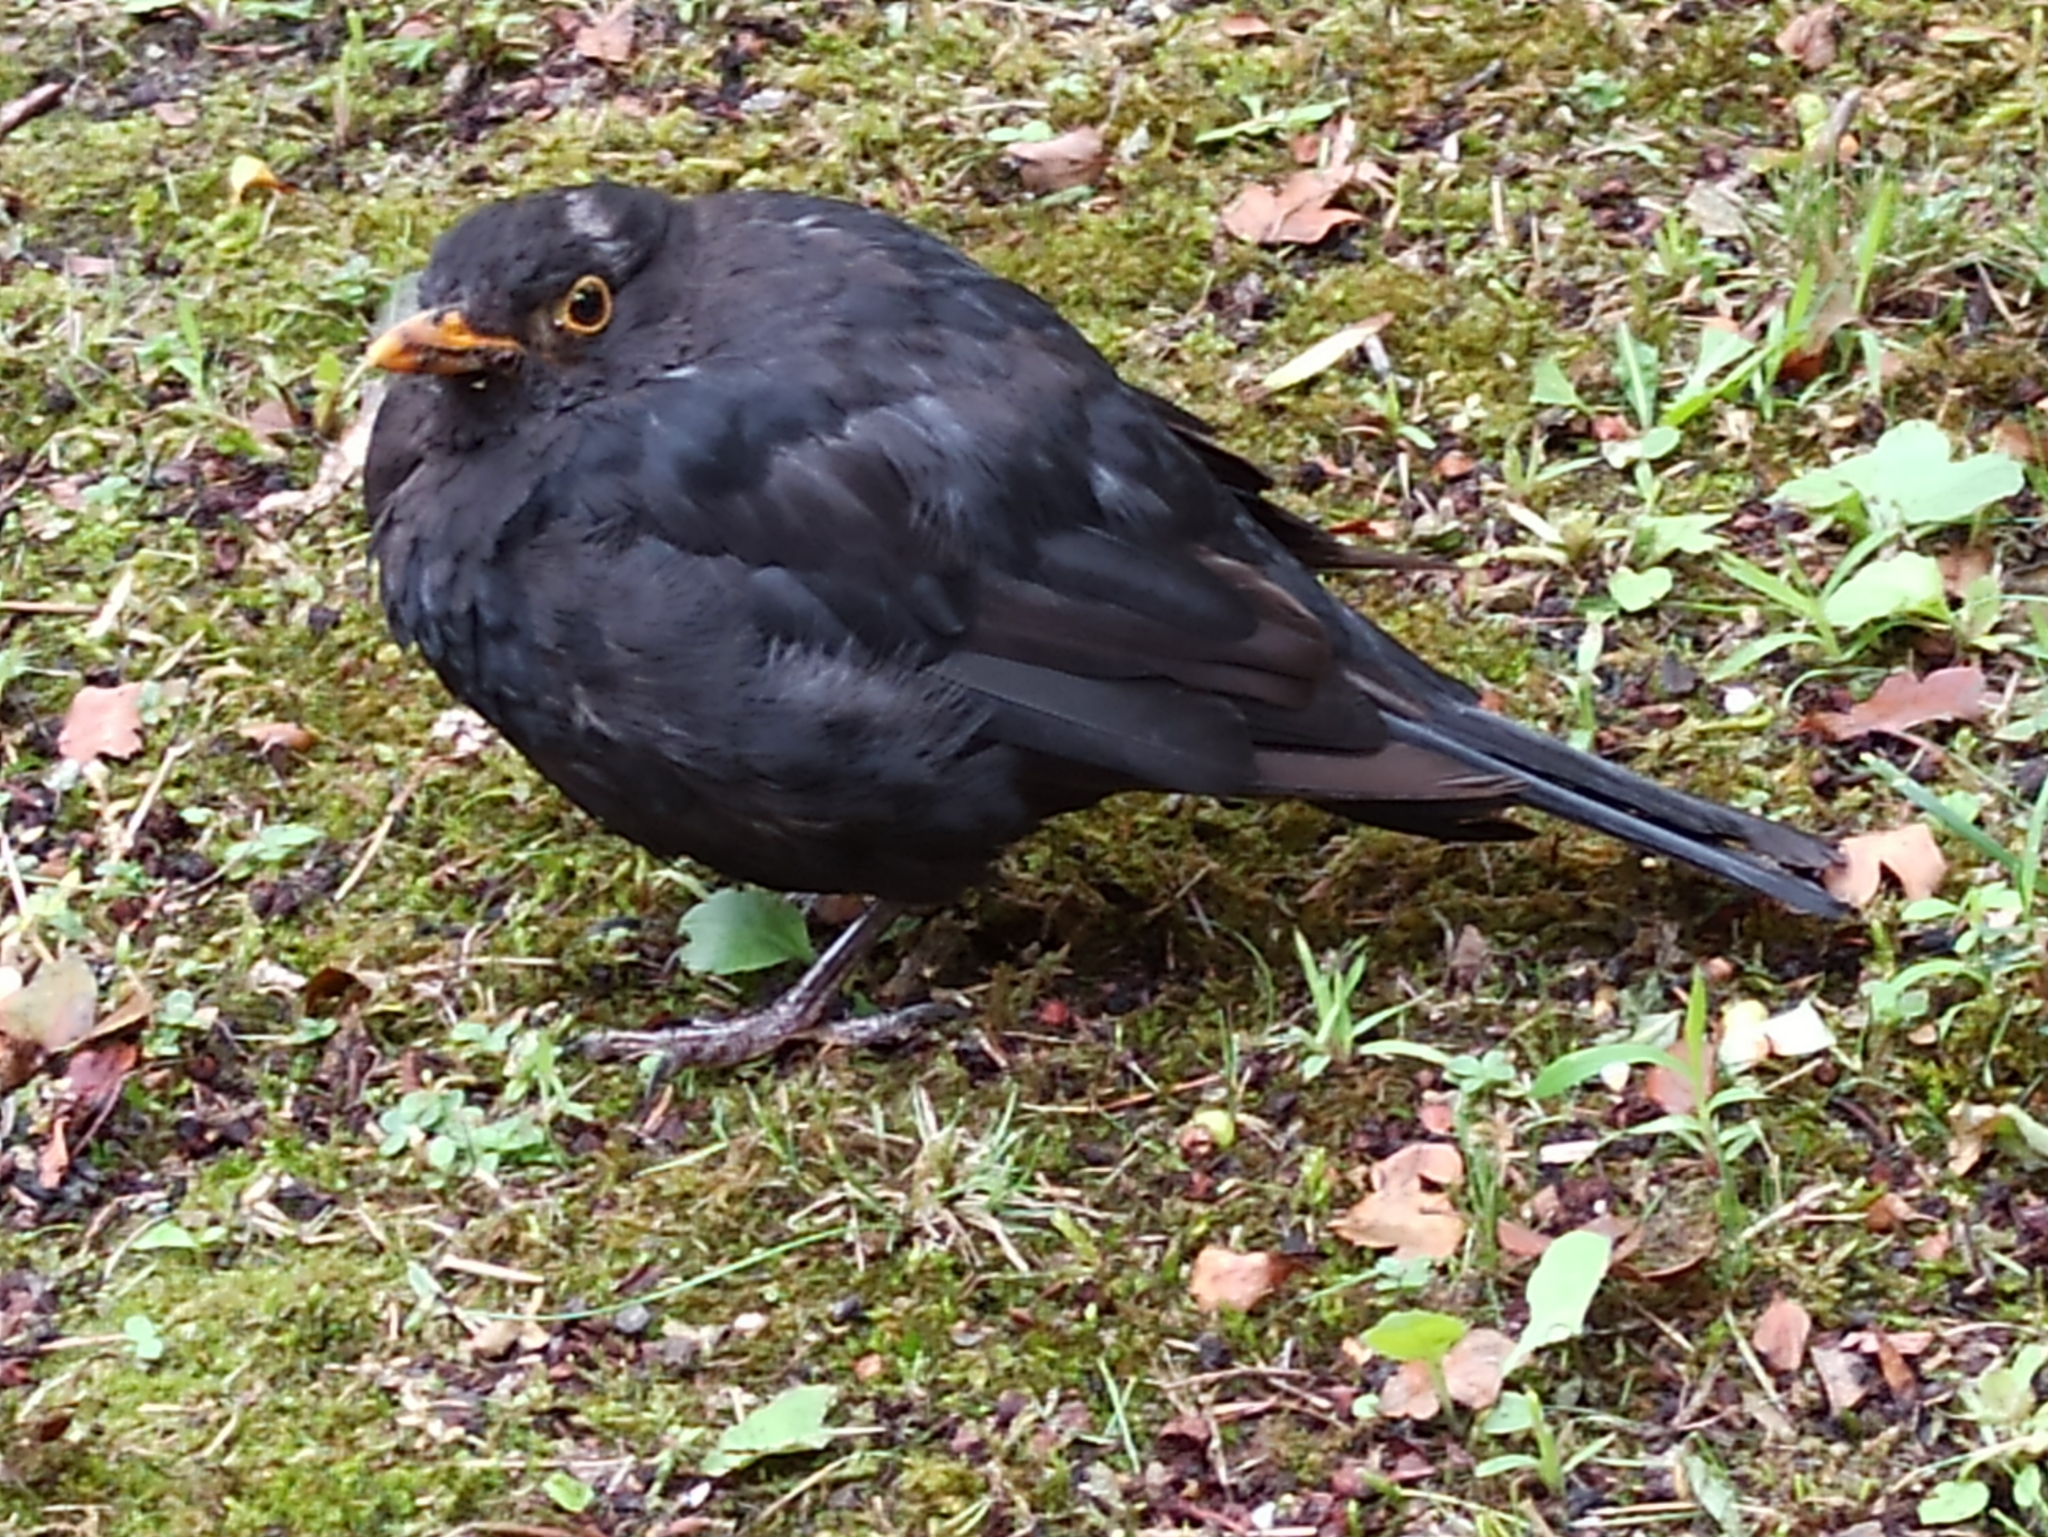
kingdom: Animalia
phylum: Chordata
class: Aves
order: Passeriformes
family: Turdidae
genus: Turdus
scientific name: Turdus merula
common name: Common blackbird
